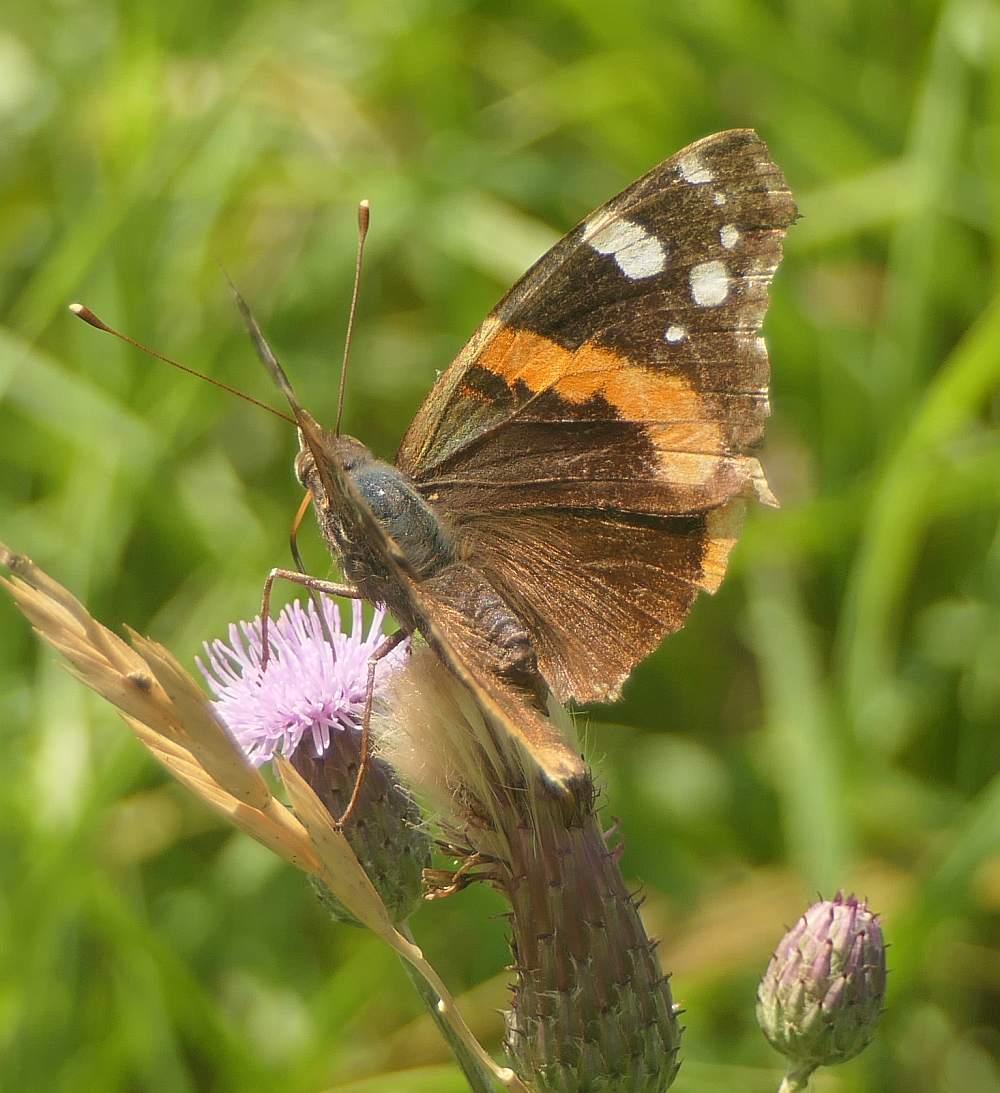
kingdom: Animalia
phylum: Arthropoda
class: Insecta
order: Lepidoptera
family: Nymphalidae
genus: Vanessa
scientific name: Vanessa atalanta
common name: Red admiral
